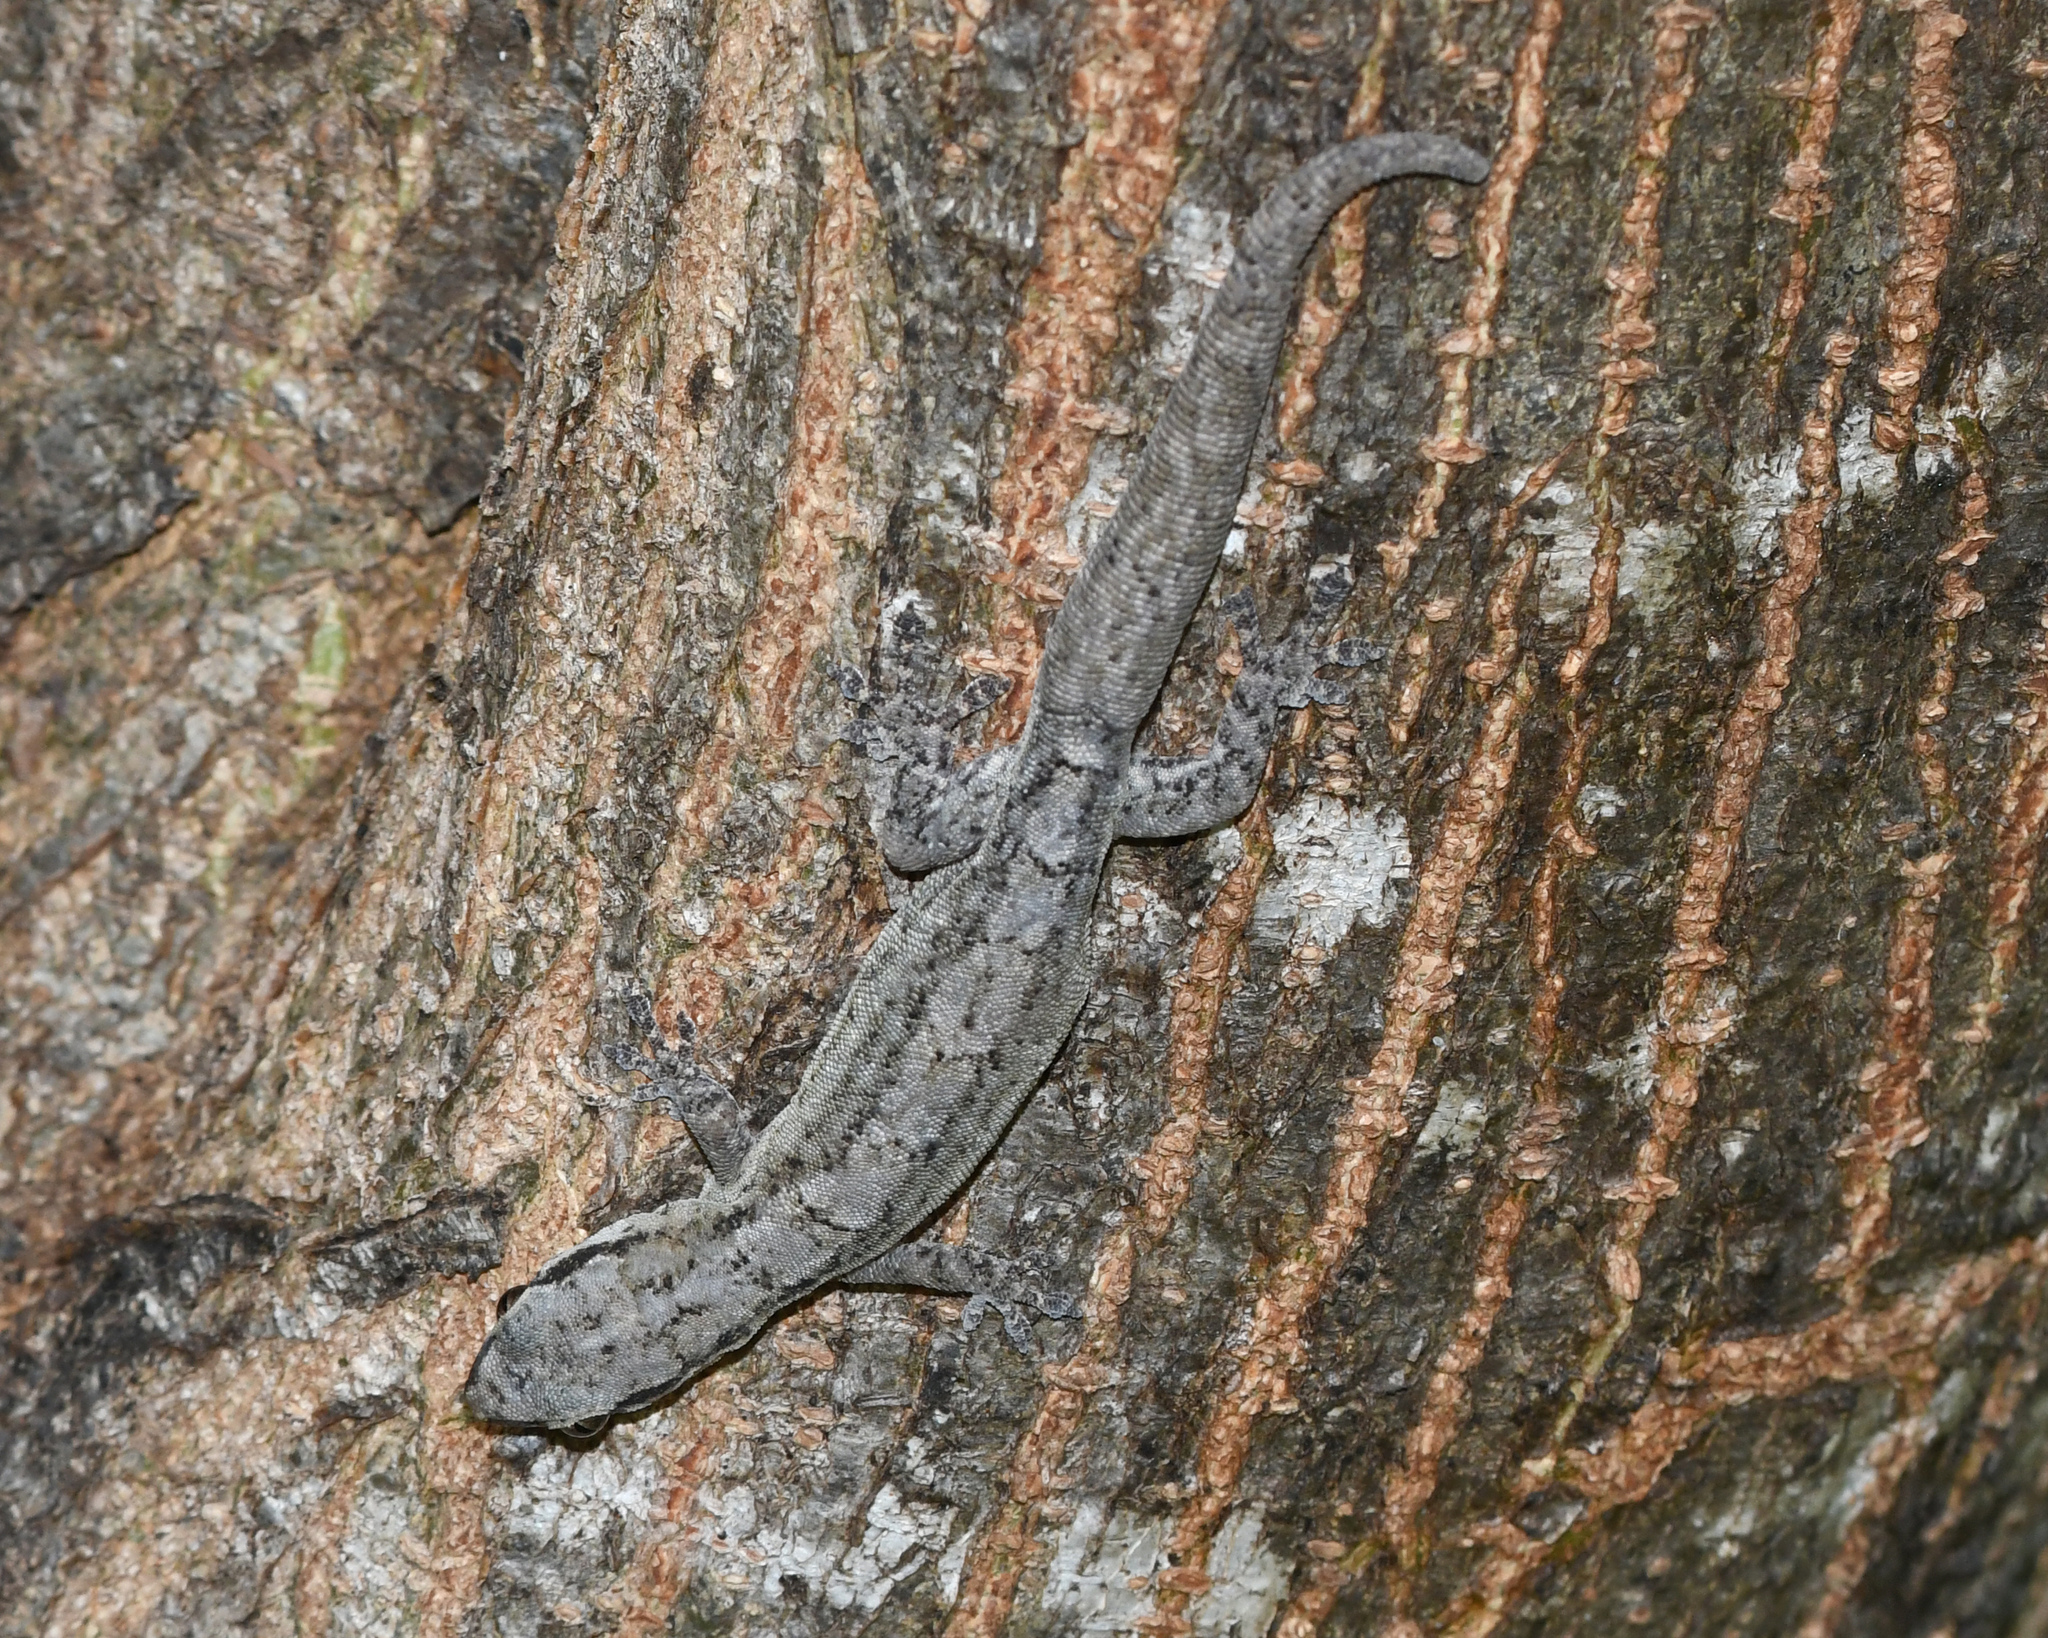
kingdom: Animalia
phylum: Chordata
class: Squamata
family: Sphaerodactylidae
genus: Aristelliger
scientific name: Aristelliger expectatus
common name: Hispaniolan desert croaking gecko
